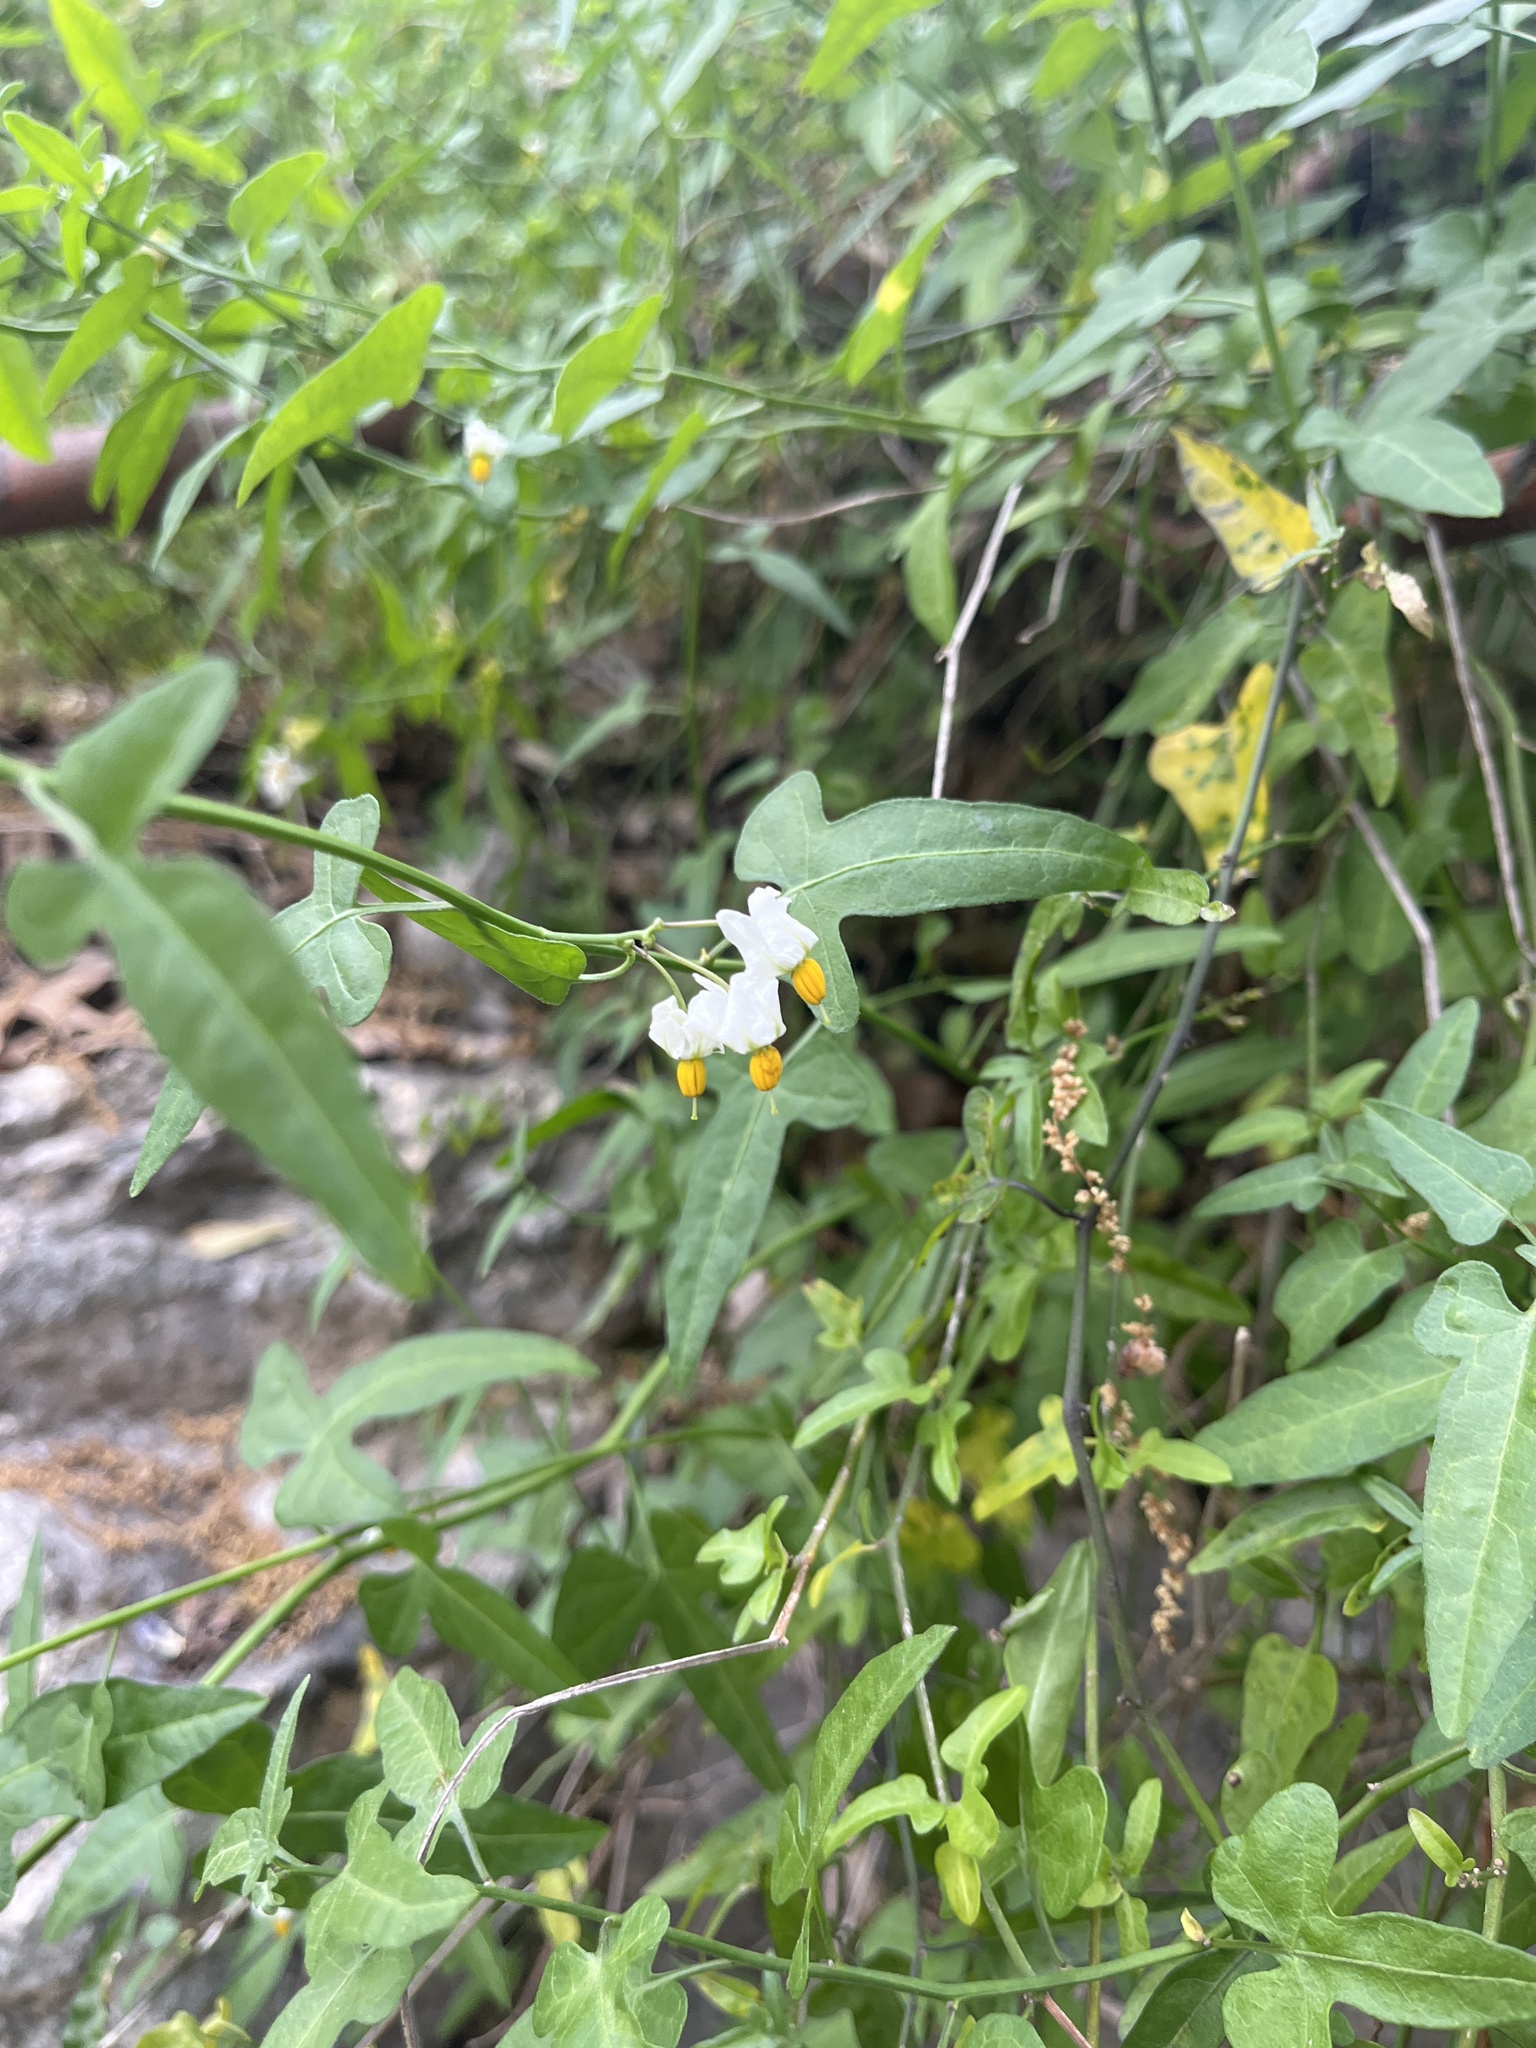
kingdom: Plantae
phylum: Tracheophyta
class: Magnoliopsida
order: Solanales
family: Solanaceae
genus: Solanum
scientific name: Solanum triquetrum
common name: Texas nightshade
